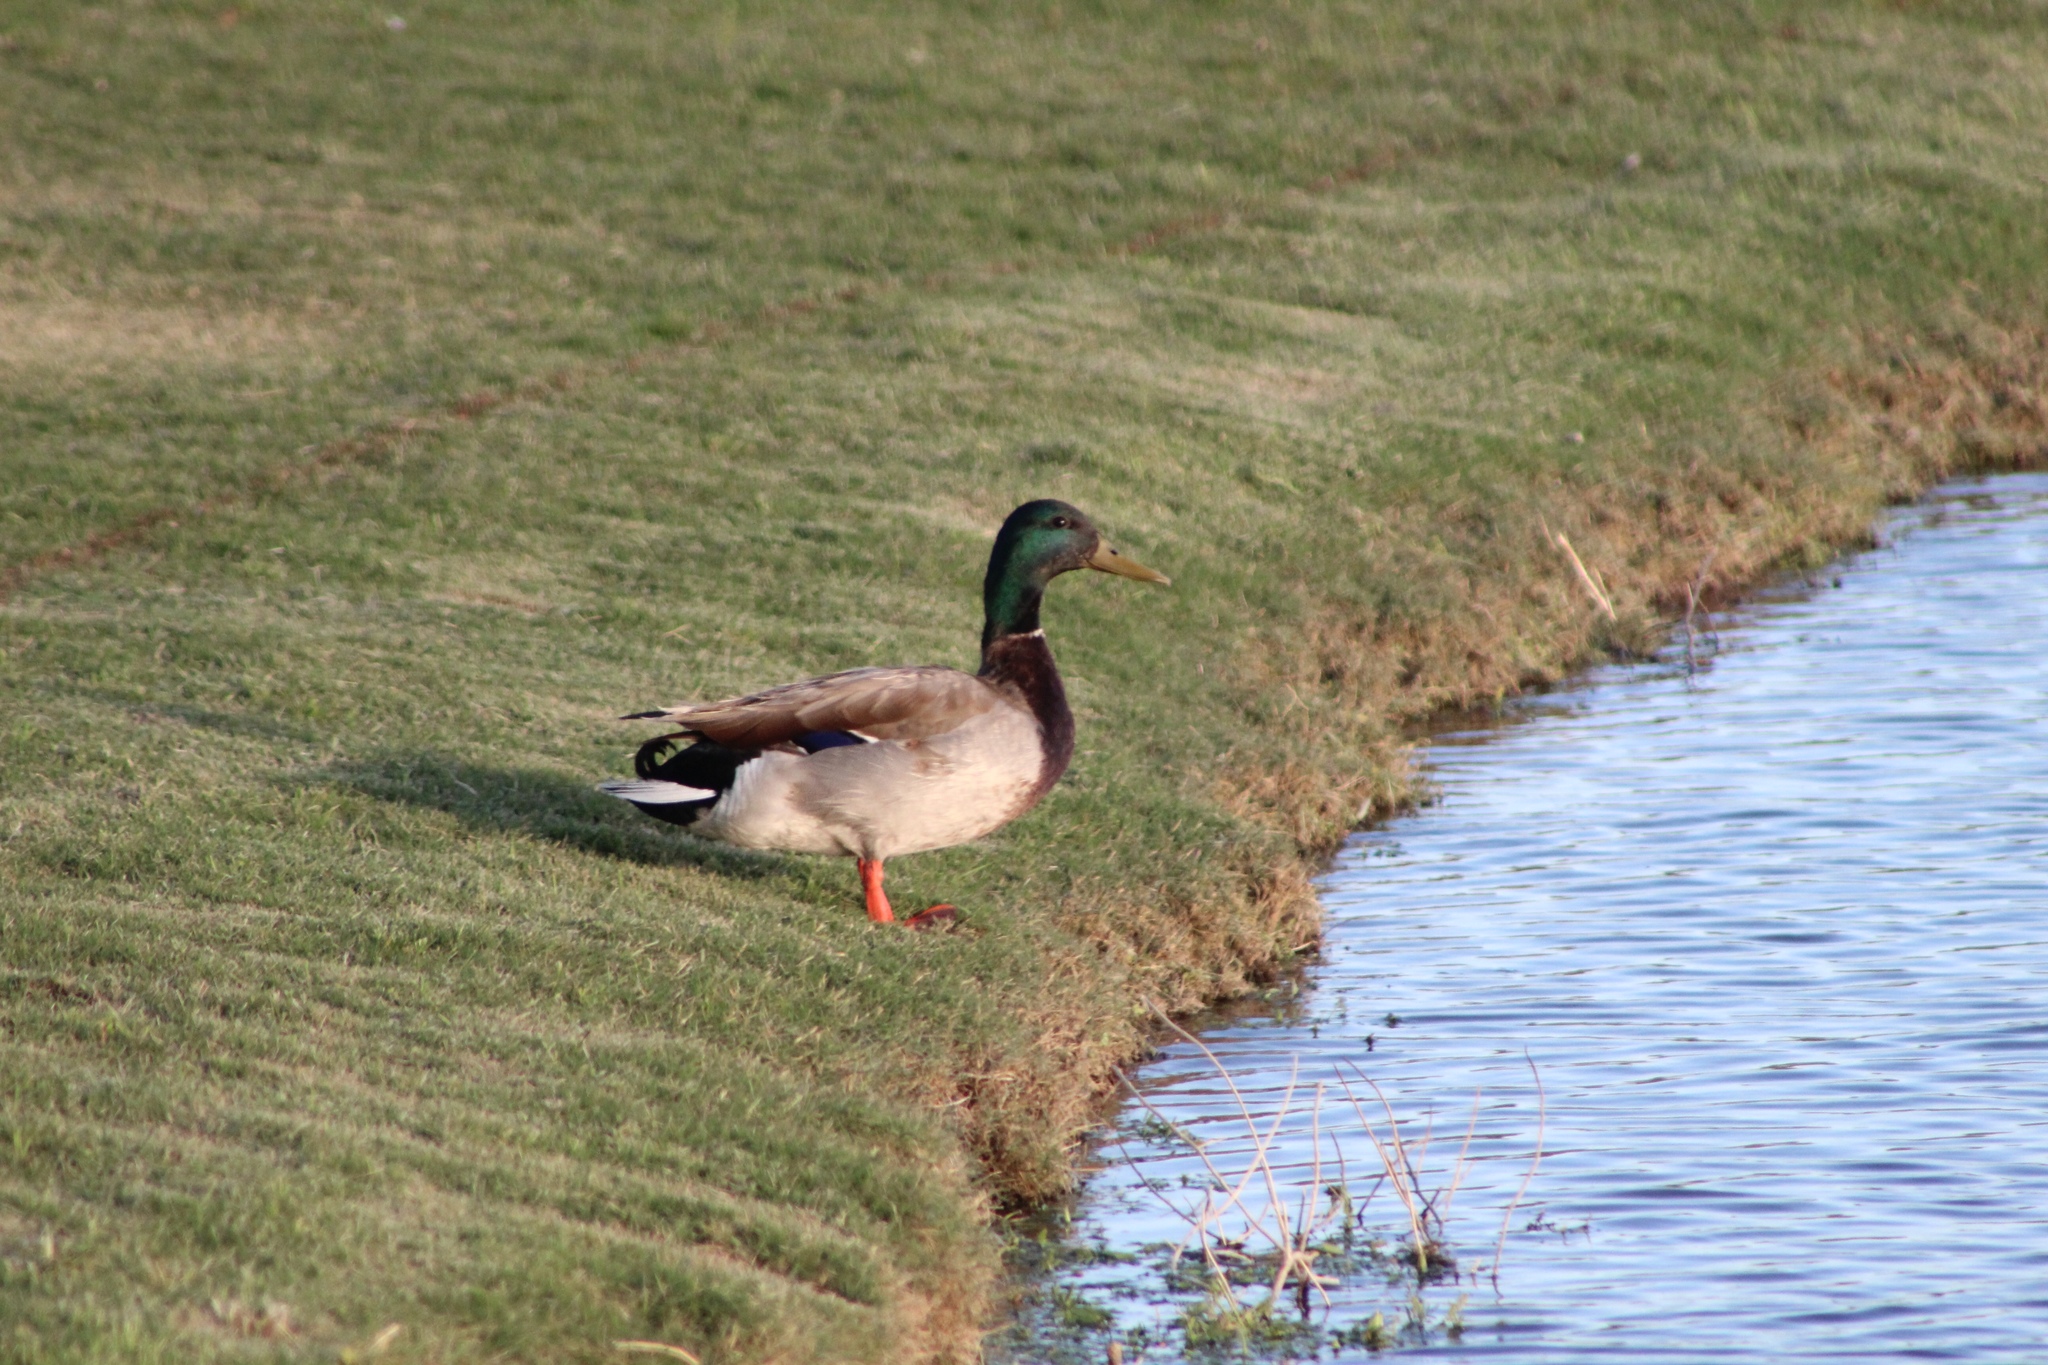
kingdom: Animalia
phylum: Chordata
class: Aves
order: Anseriformes
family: Anatidae
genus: Anas
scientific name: Anas platyrhynchos
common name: Mallard
